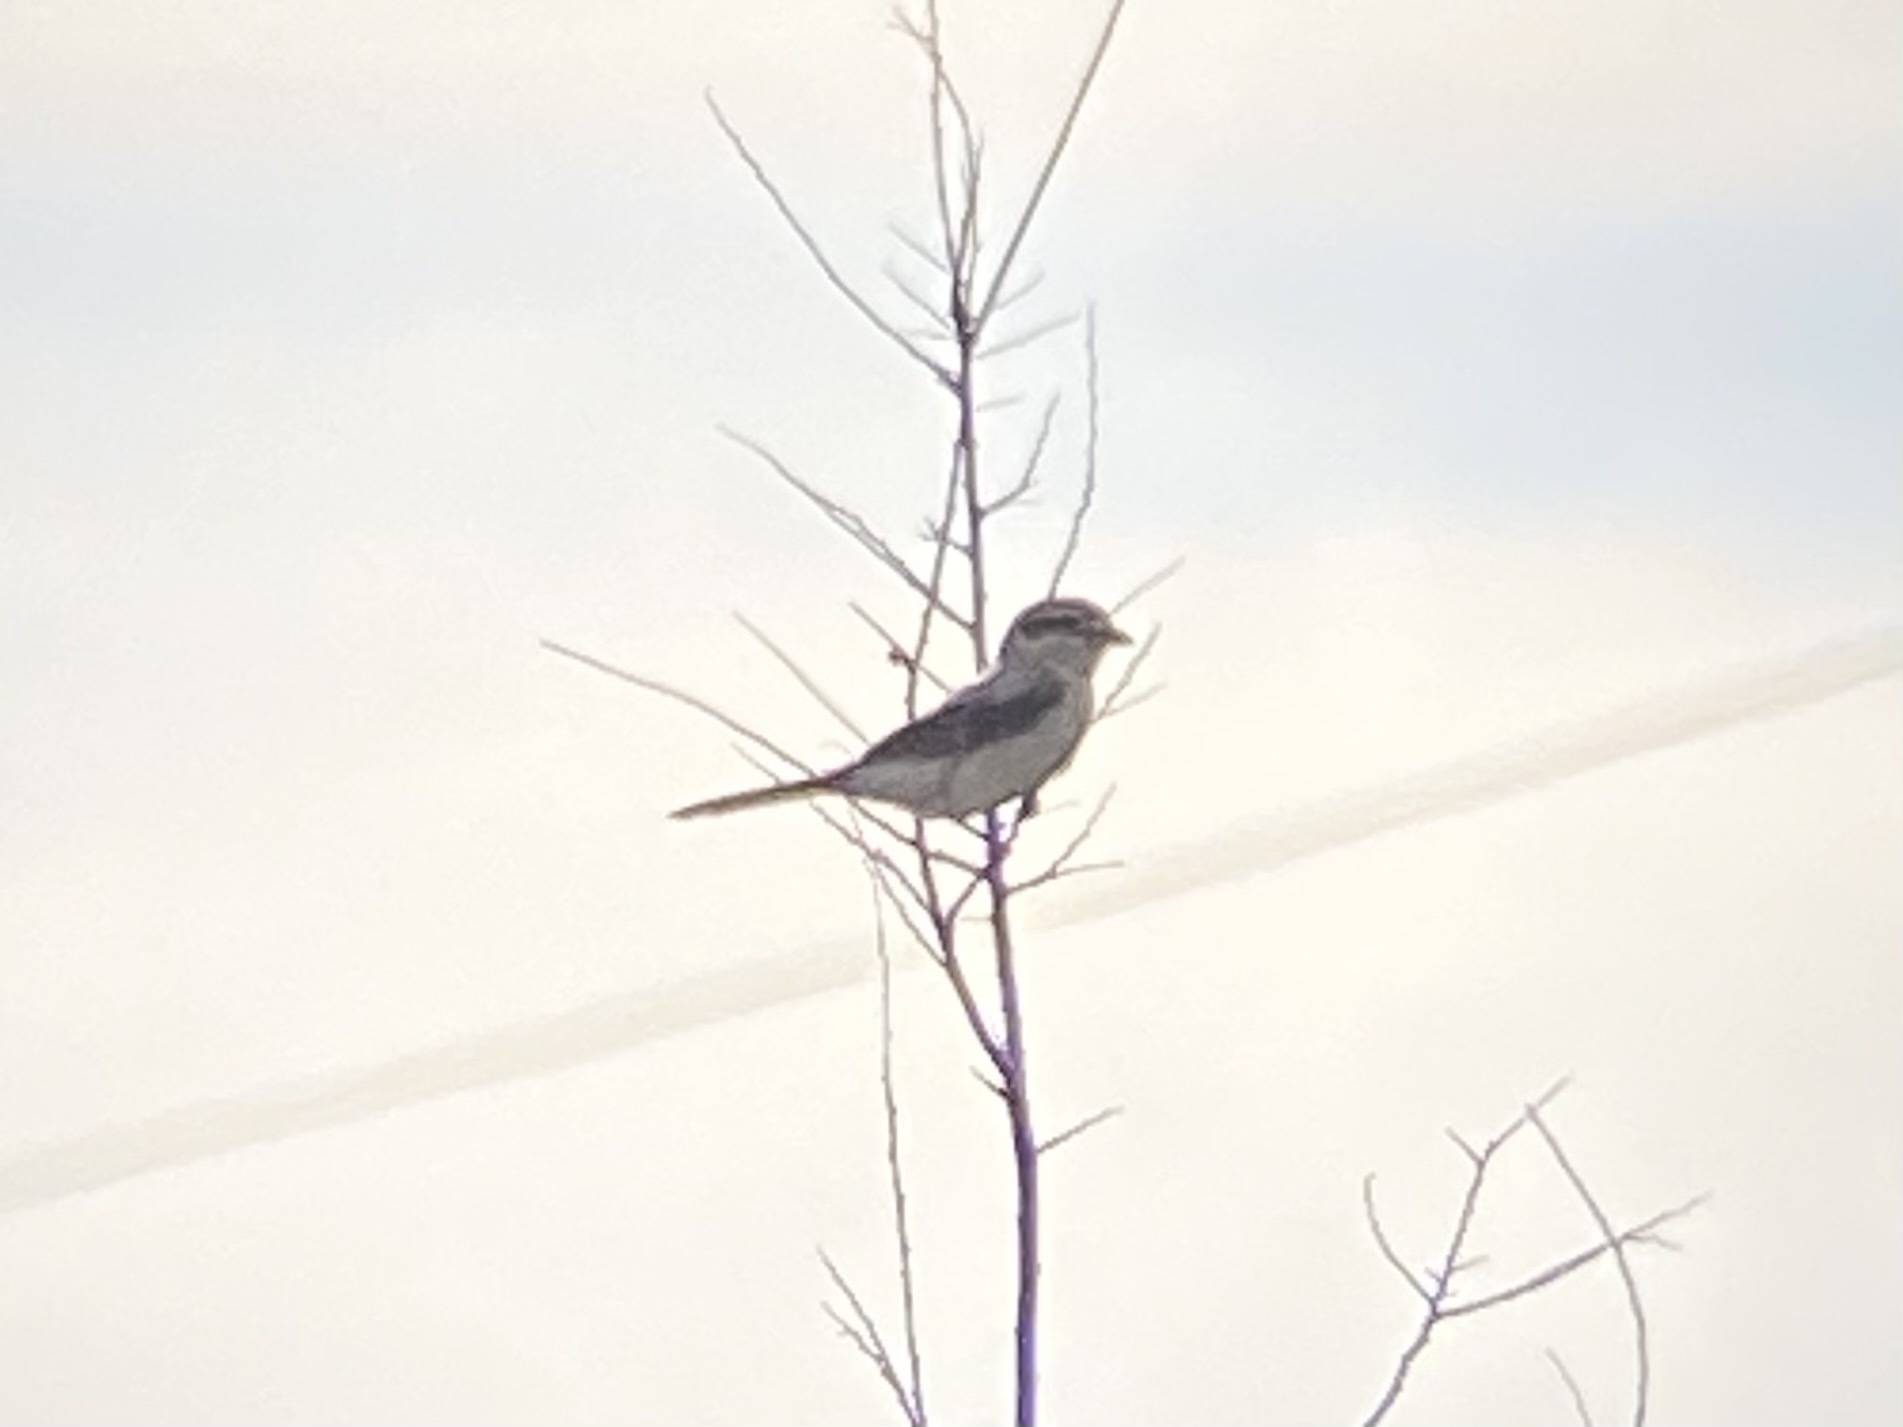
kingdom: Animalia
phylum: Chordata
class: Aves
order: Passeriformes
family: Laniidae
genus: Lanius
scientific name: Lanius borealis
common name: Northern shrike
